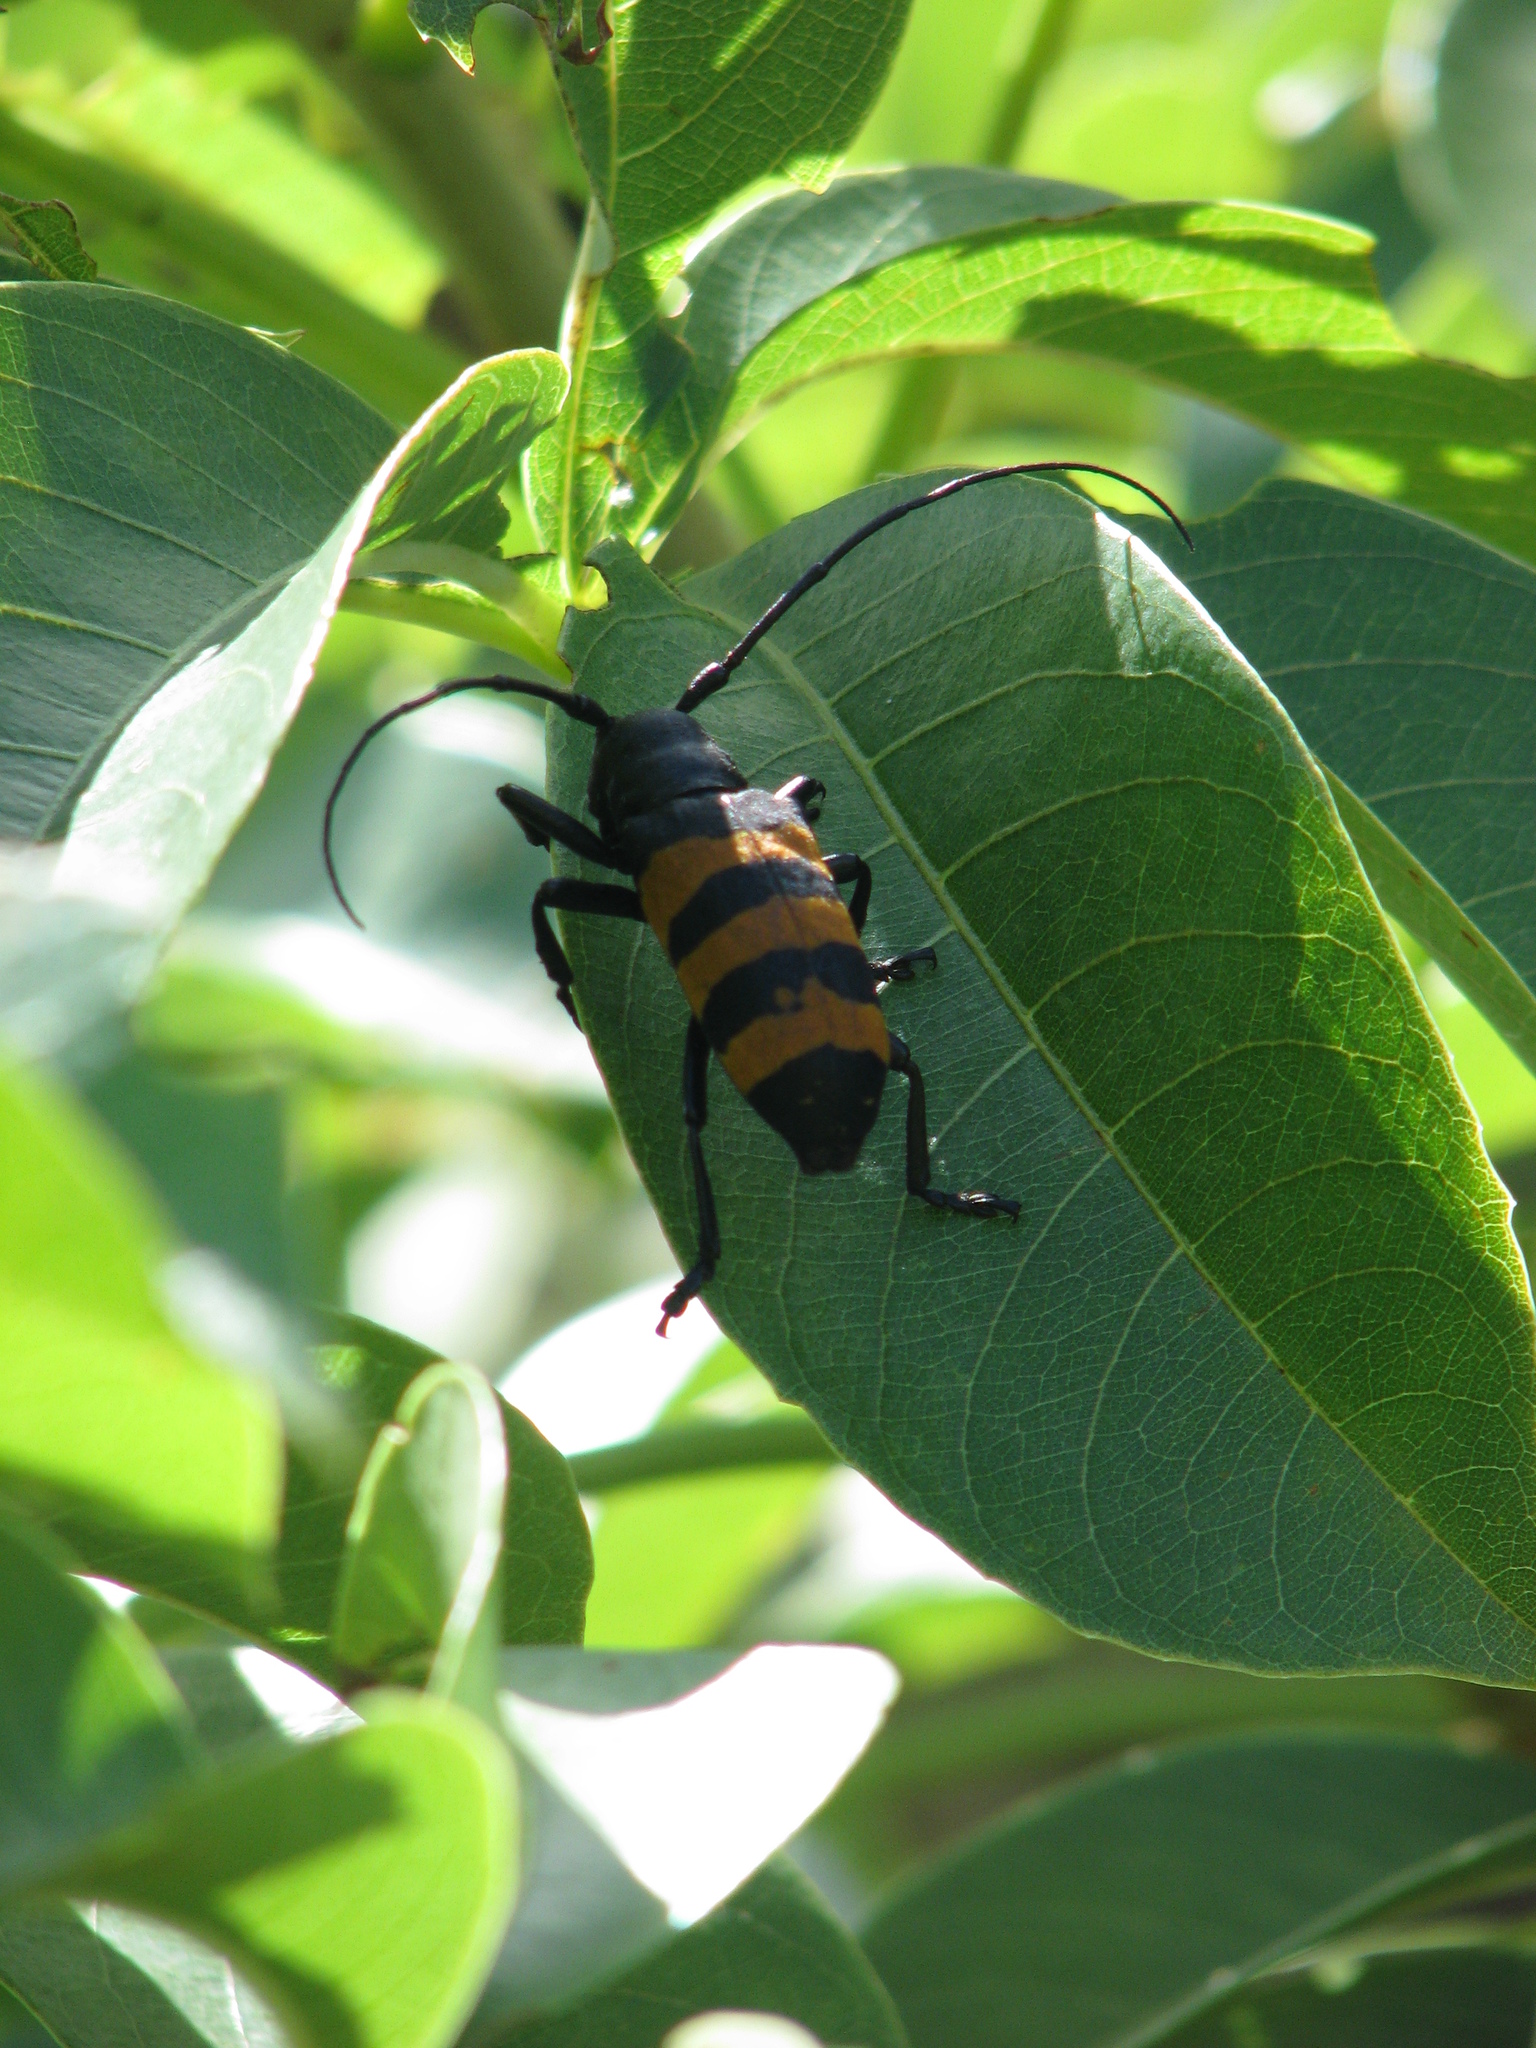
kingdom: Animalia
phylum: Arthropoda
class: Insecta
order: Coleoptera
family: Cerambycidae
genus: Diastocera
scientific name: Diastocera trifasciata
